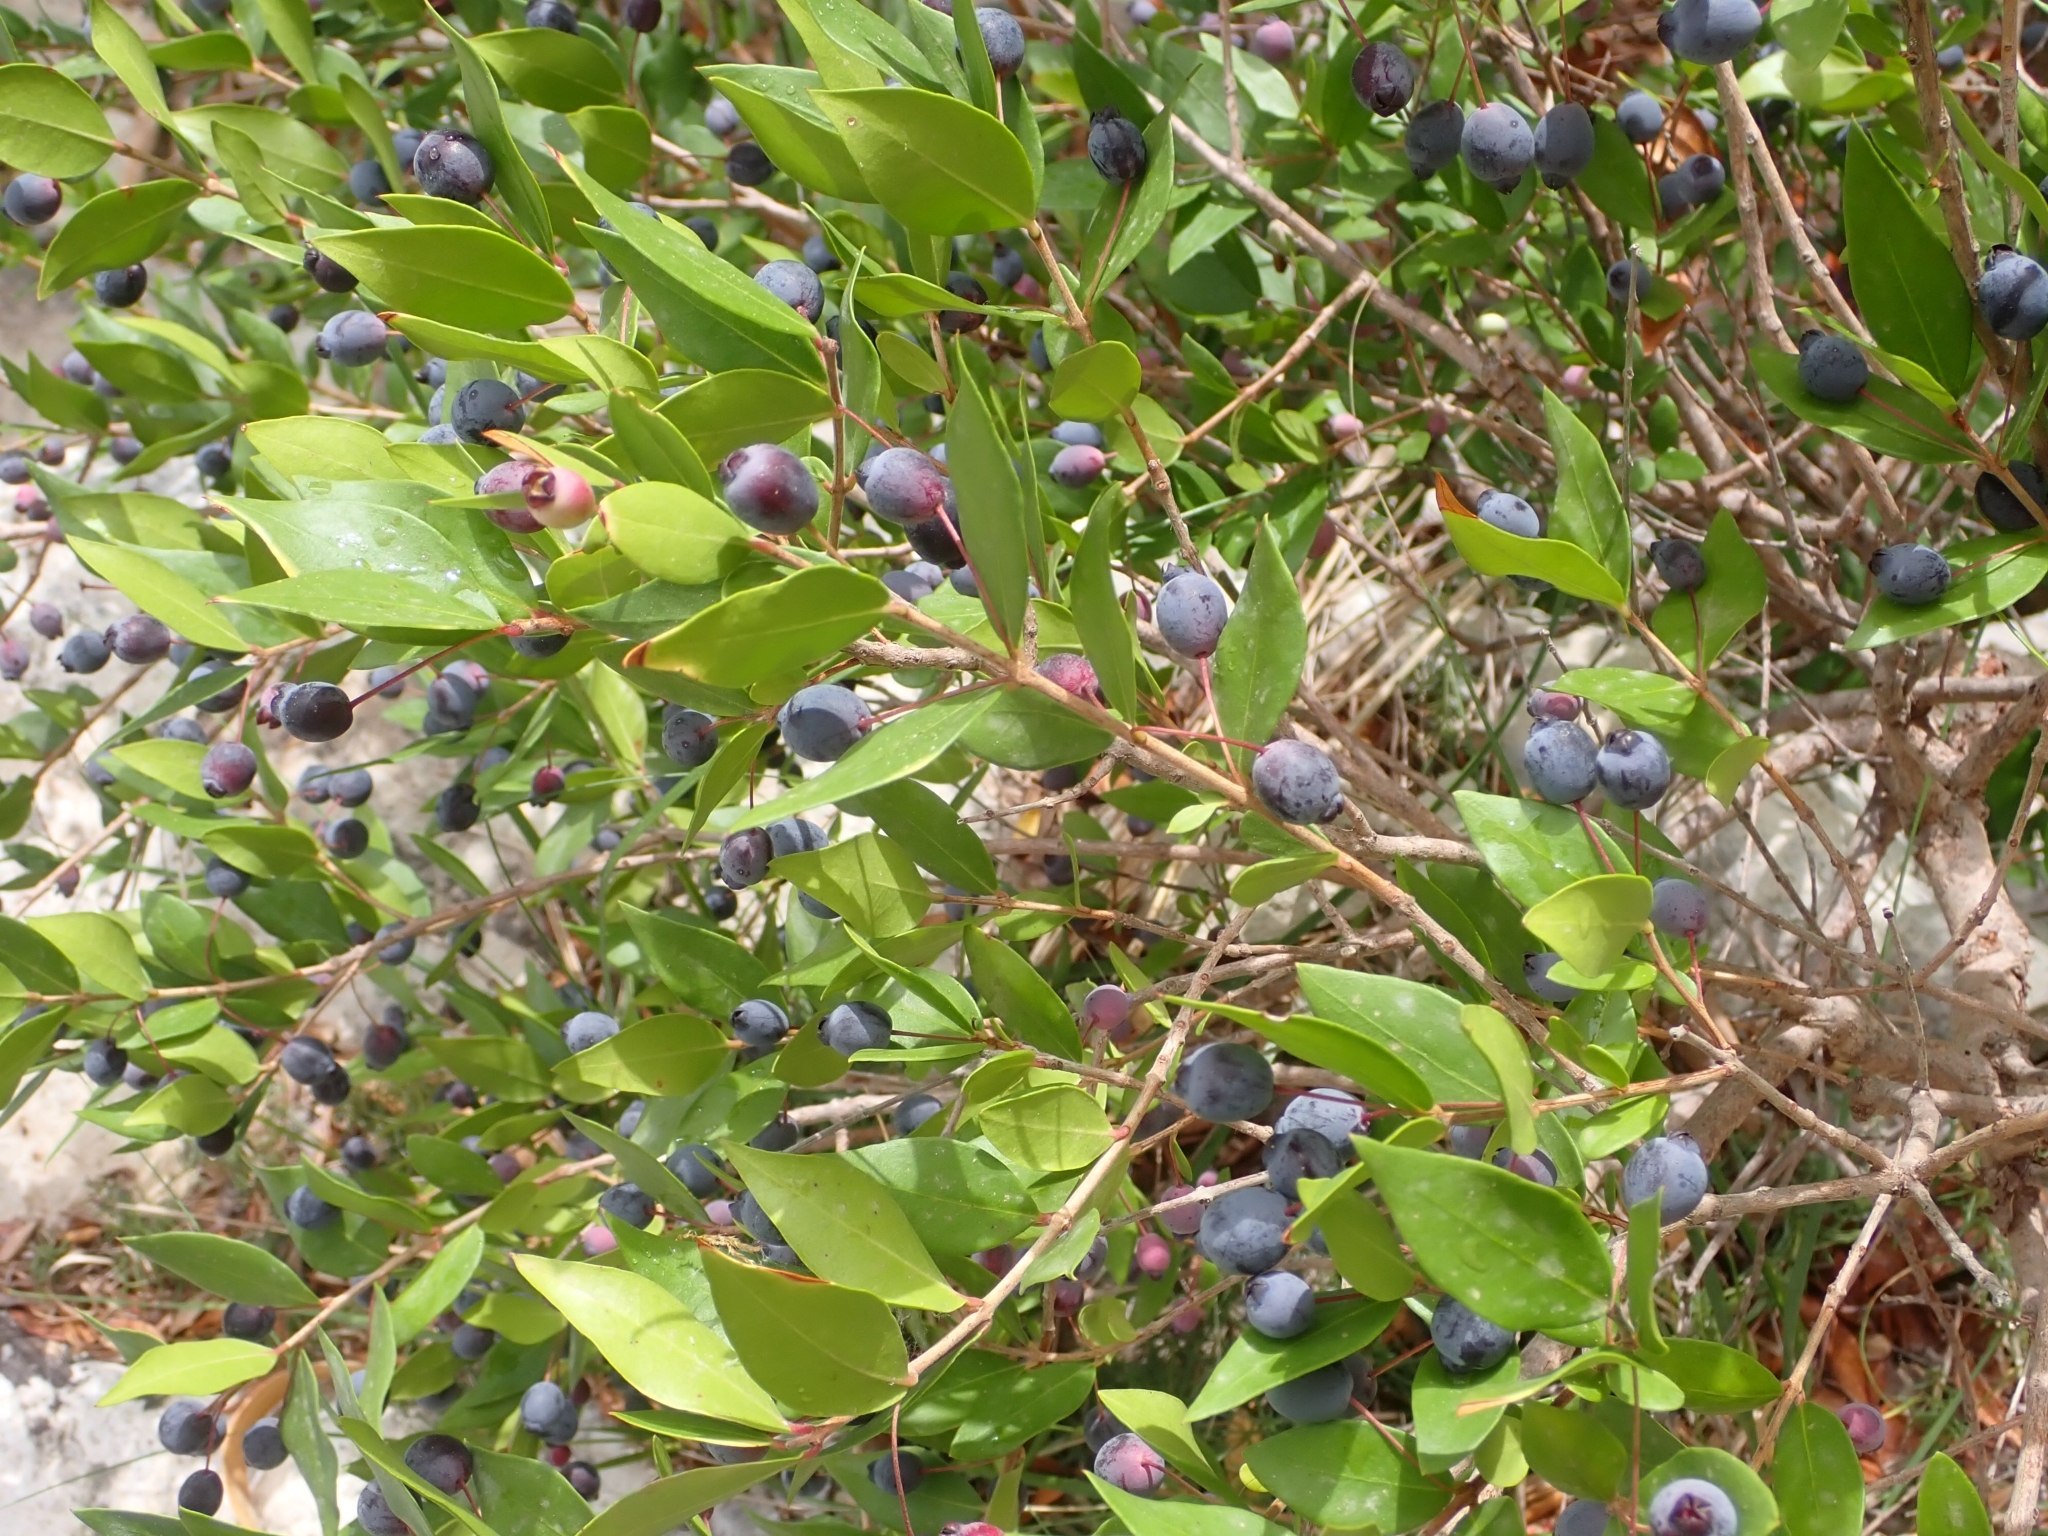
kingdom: Plantae
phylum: Tracheophyta
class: Magnoliopsida
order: Myrtales
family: Myrtaceae
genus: Myrtus
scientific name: Myrtus communis
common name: Myrtle
